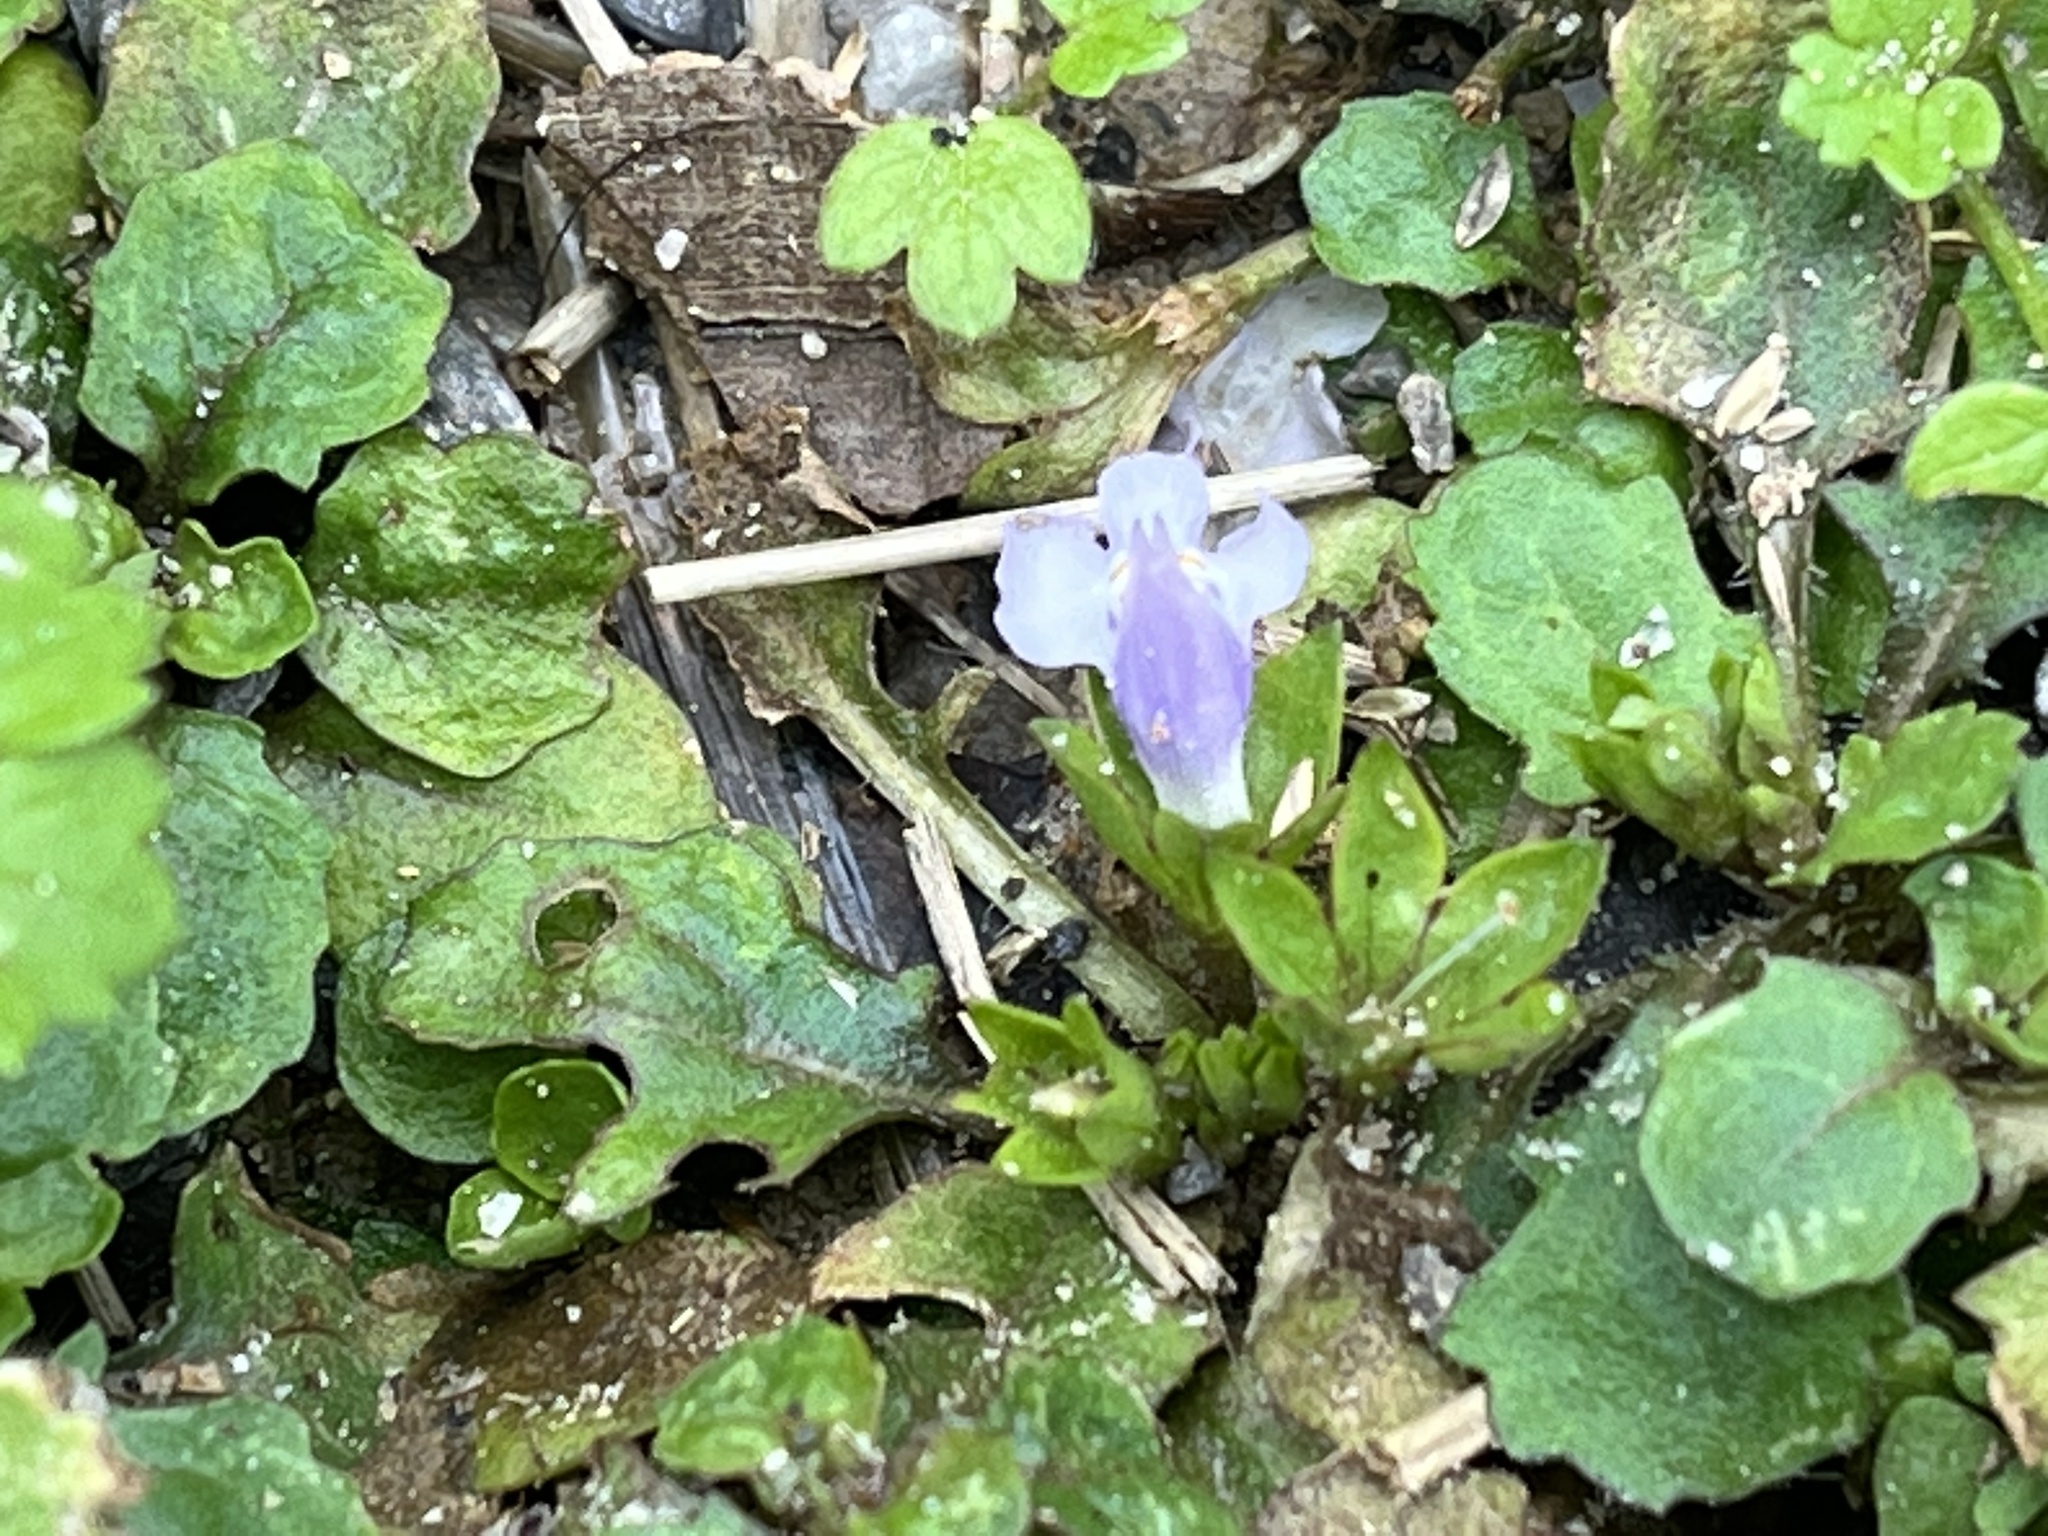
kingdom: Plantae
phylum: Tracheophyta
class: Magnoliopsida
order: Lamiales
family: Mazaceae
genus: Mazus
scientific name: Mazus pumilus
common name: Japanese mazus
